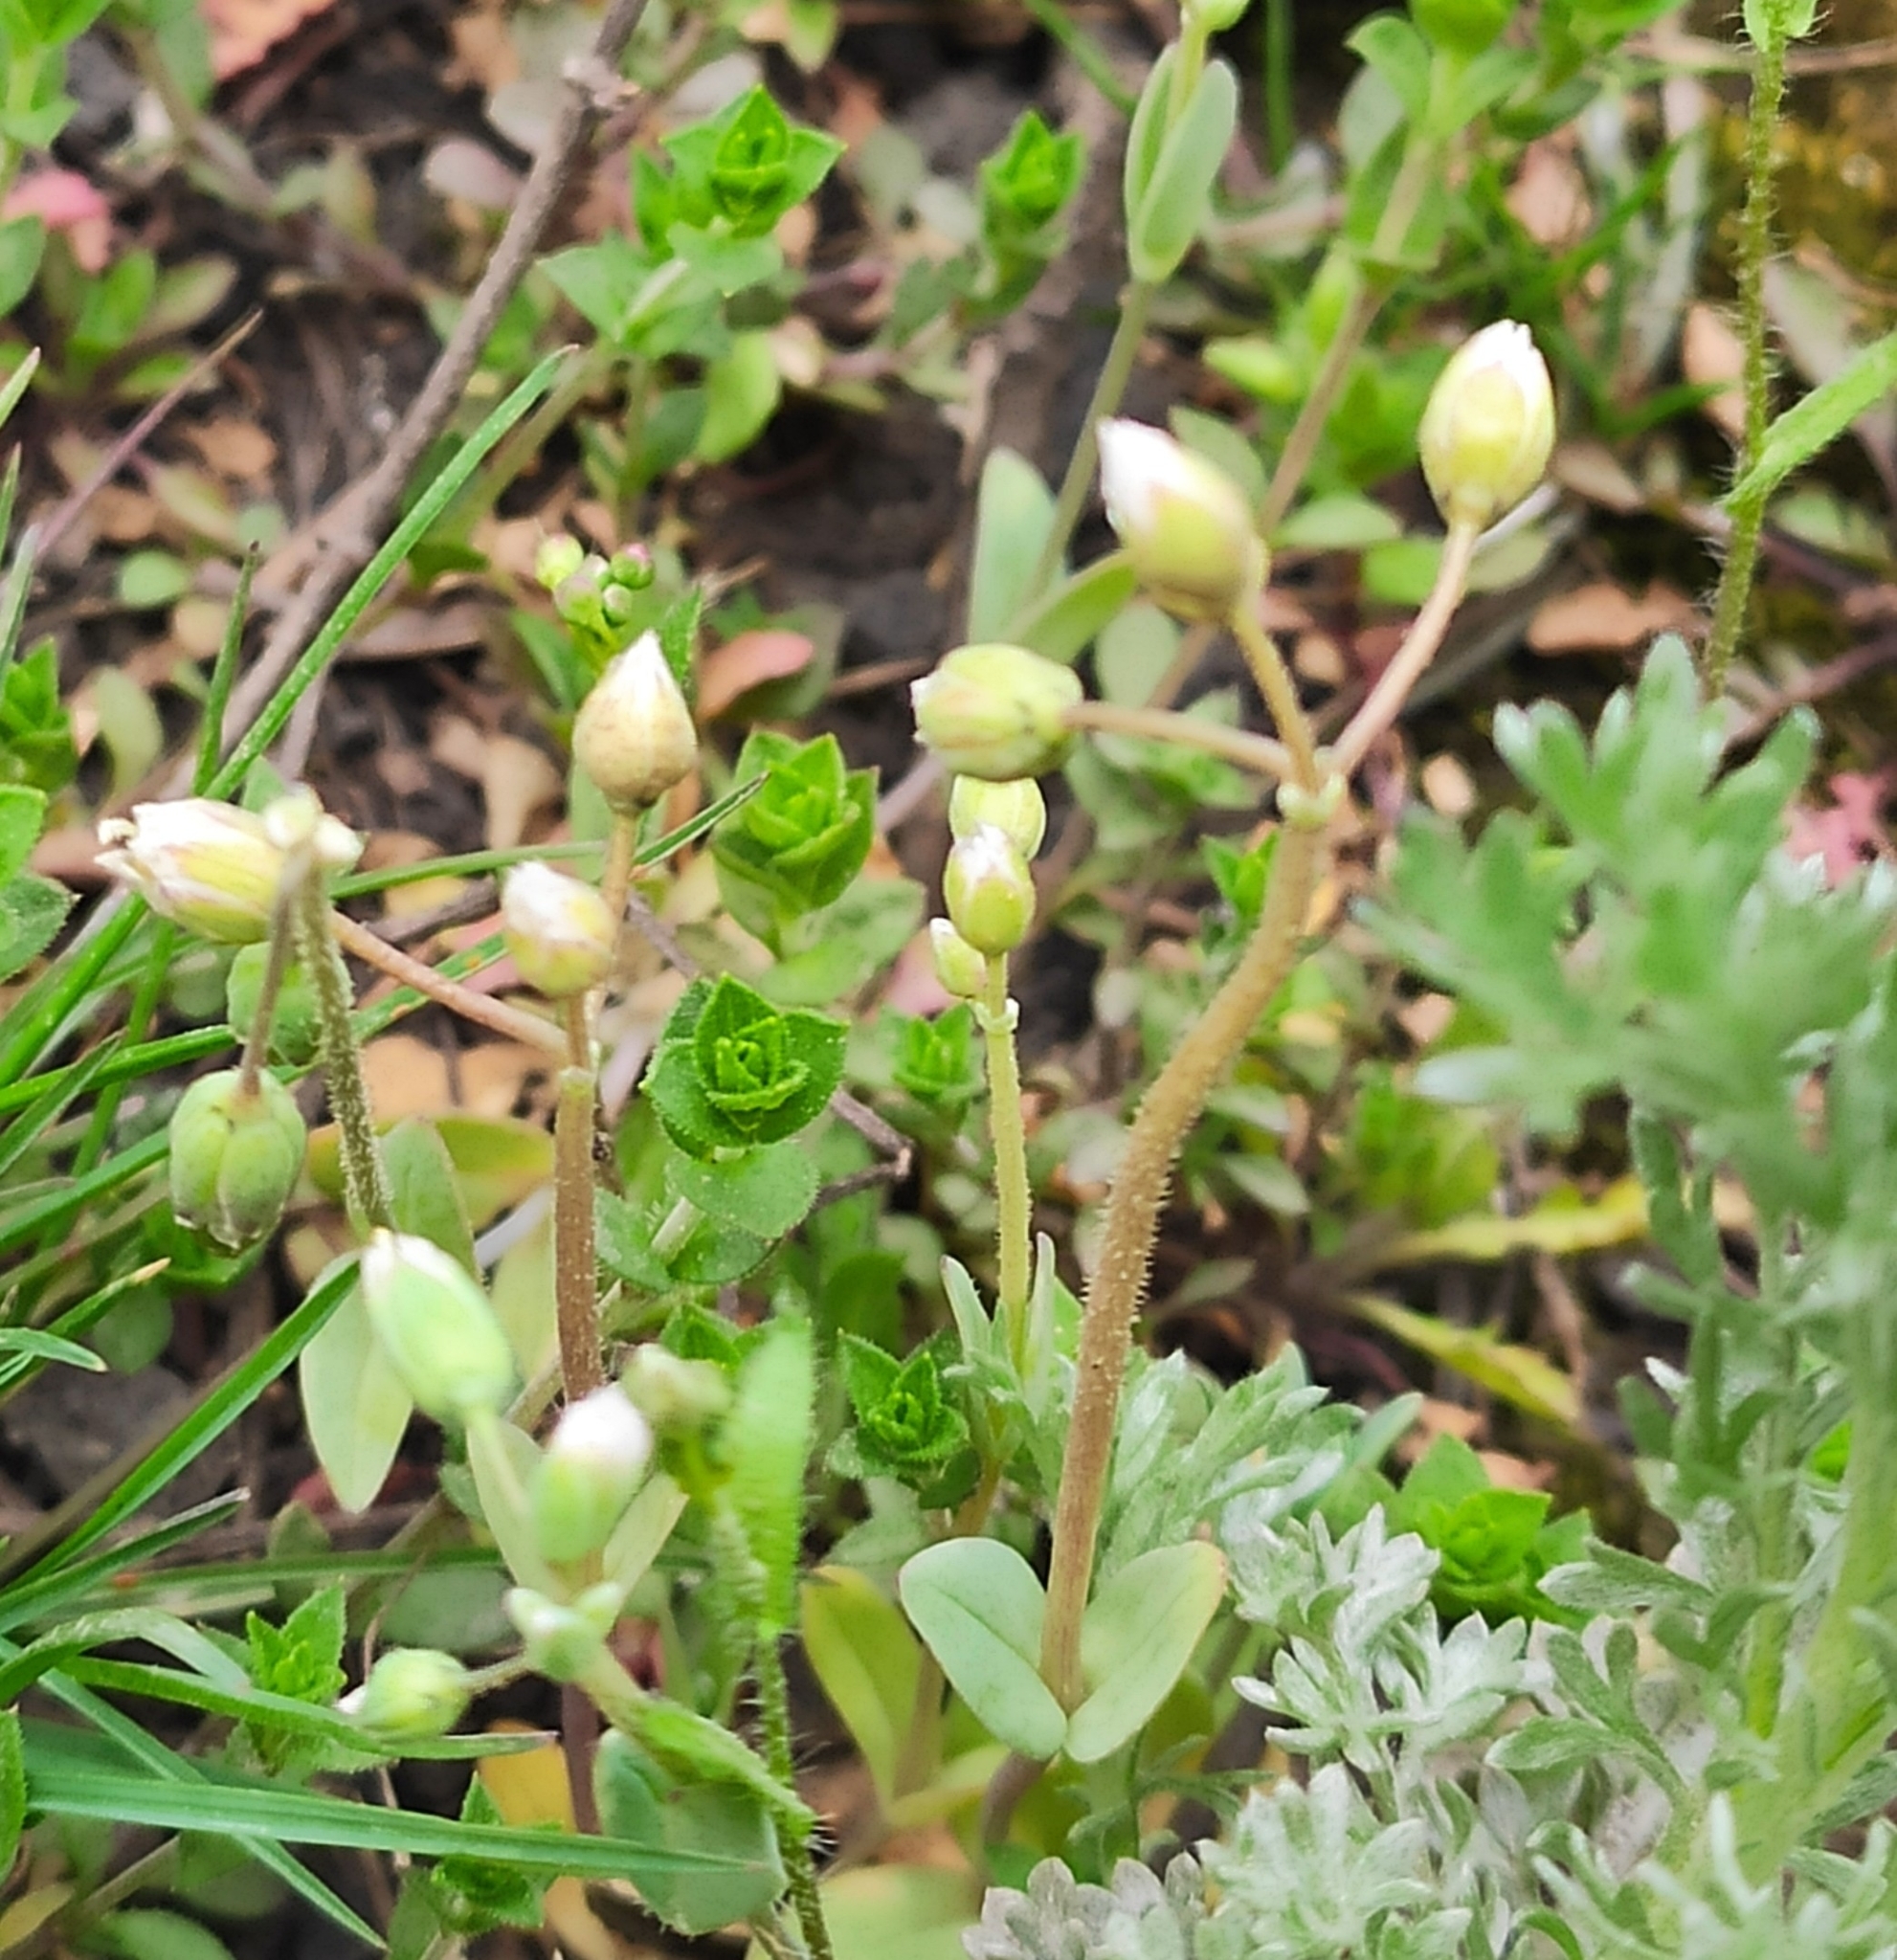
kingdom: Plantae
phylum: Tracheophyta
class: Magnoliopsida
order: Caryophyllales
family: Caryophyllaceae
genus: Holosteum
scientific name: Holosteum umbellatum
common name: Jagged chickweed
